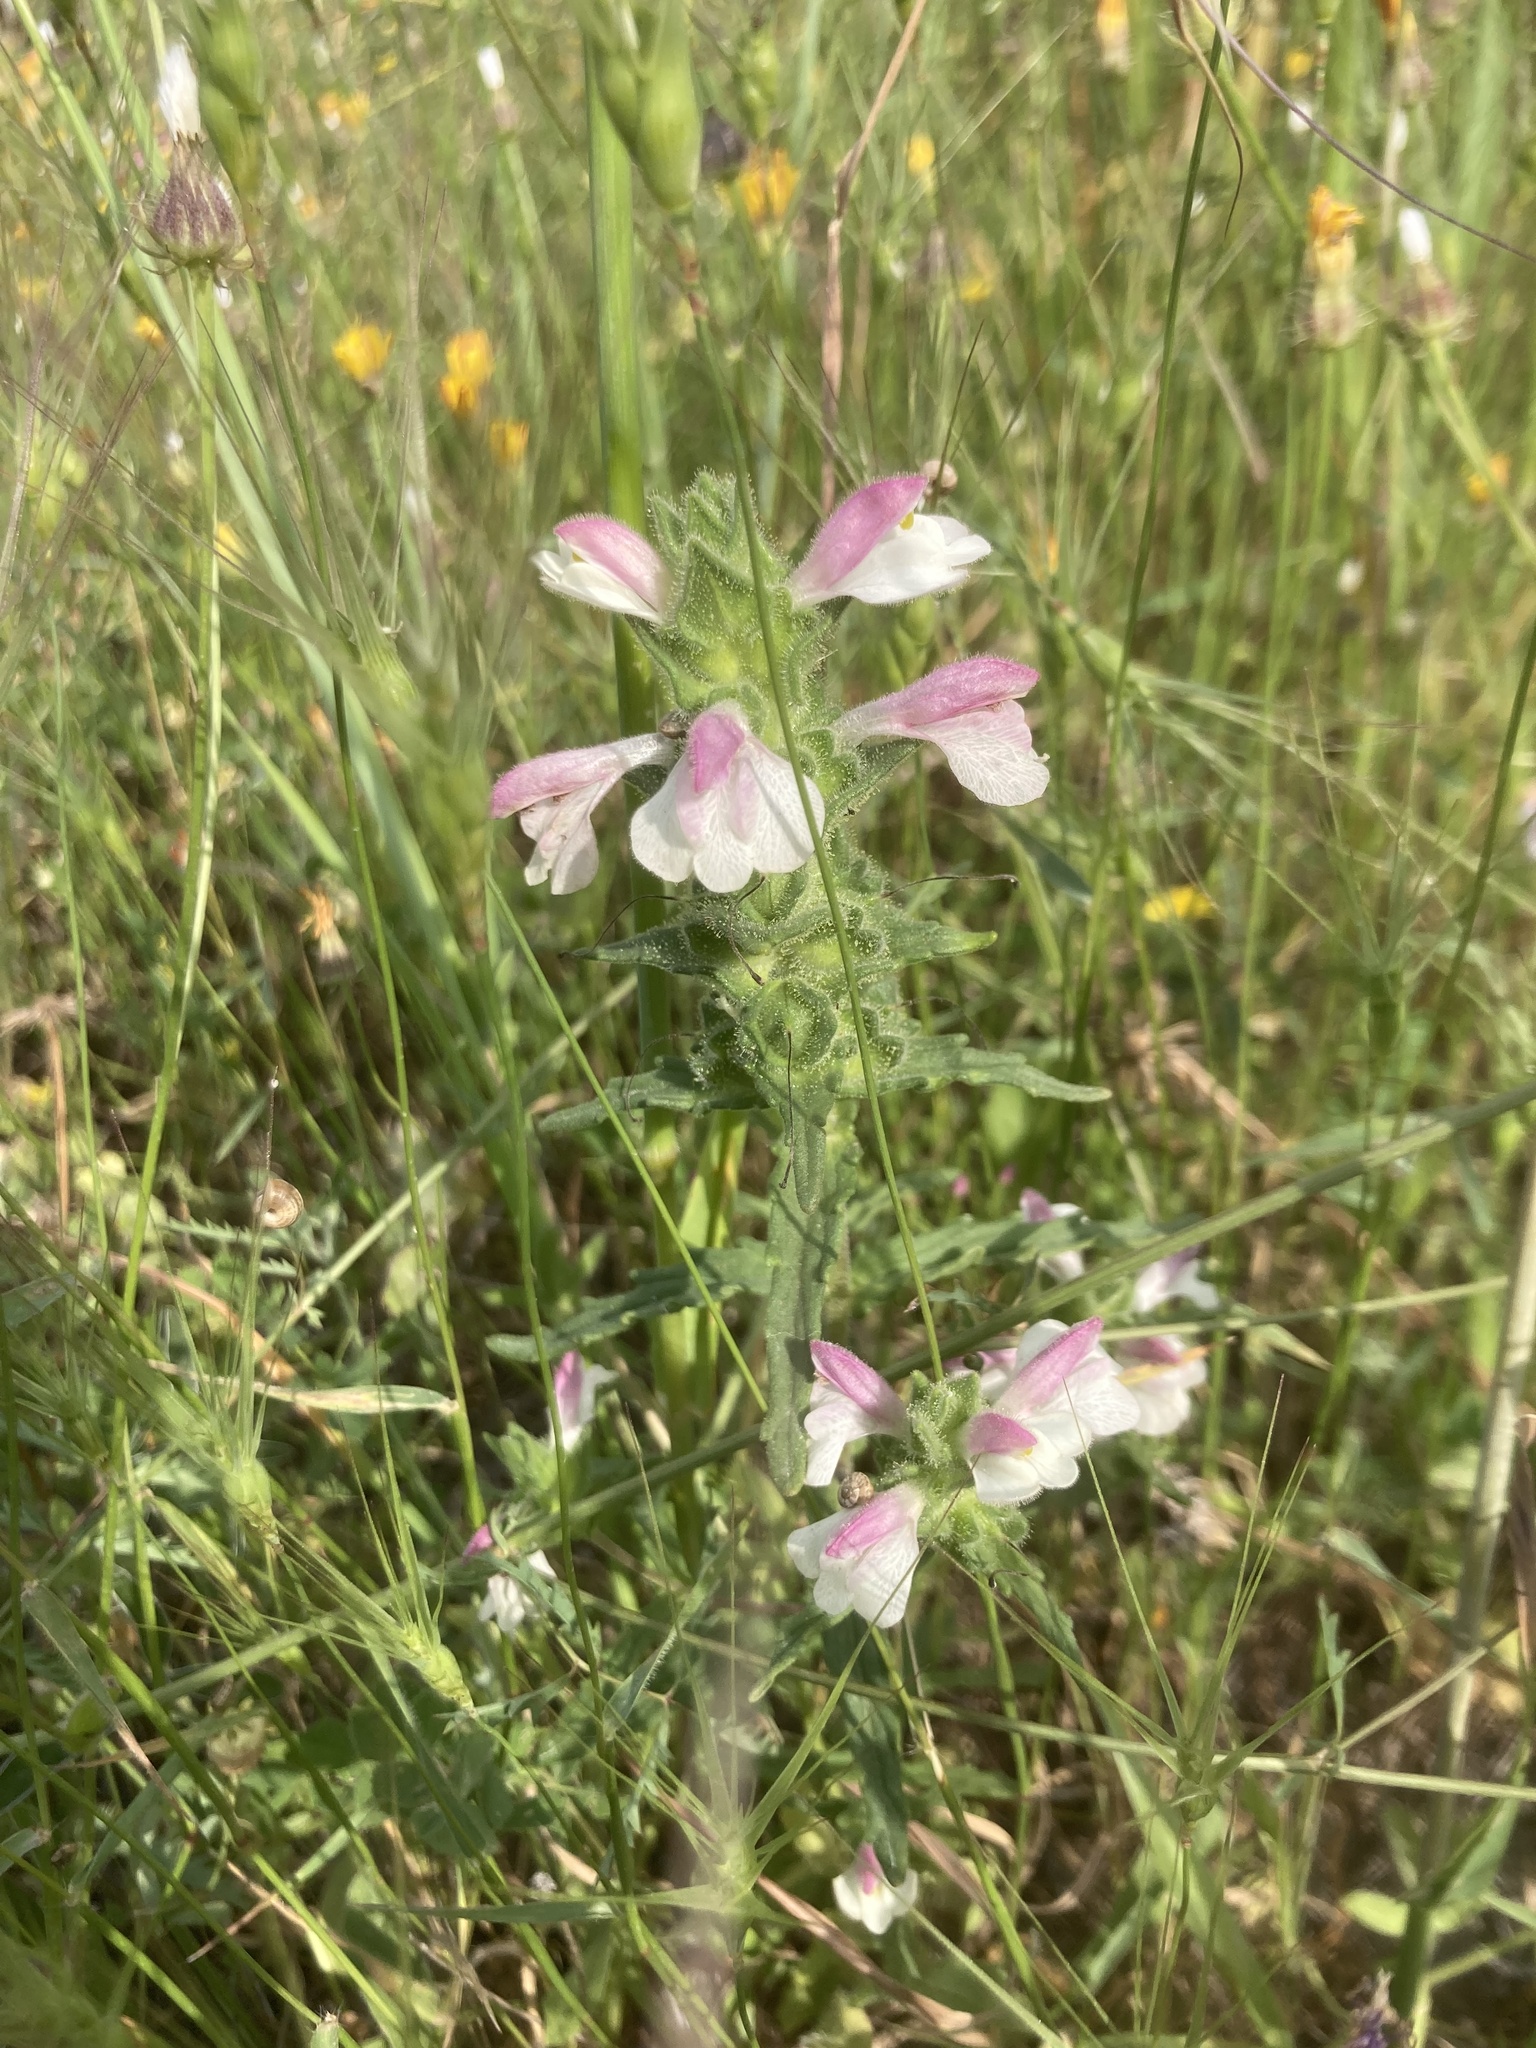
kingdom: Plantae
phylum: Tracheophyta
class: Magnoliopsida
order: Lamiales
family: Orobanchaceae
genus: Bellardia
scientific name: Bellardia trixago
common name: Mediterranean lineseed
